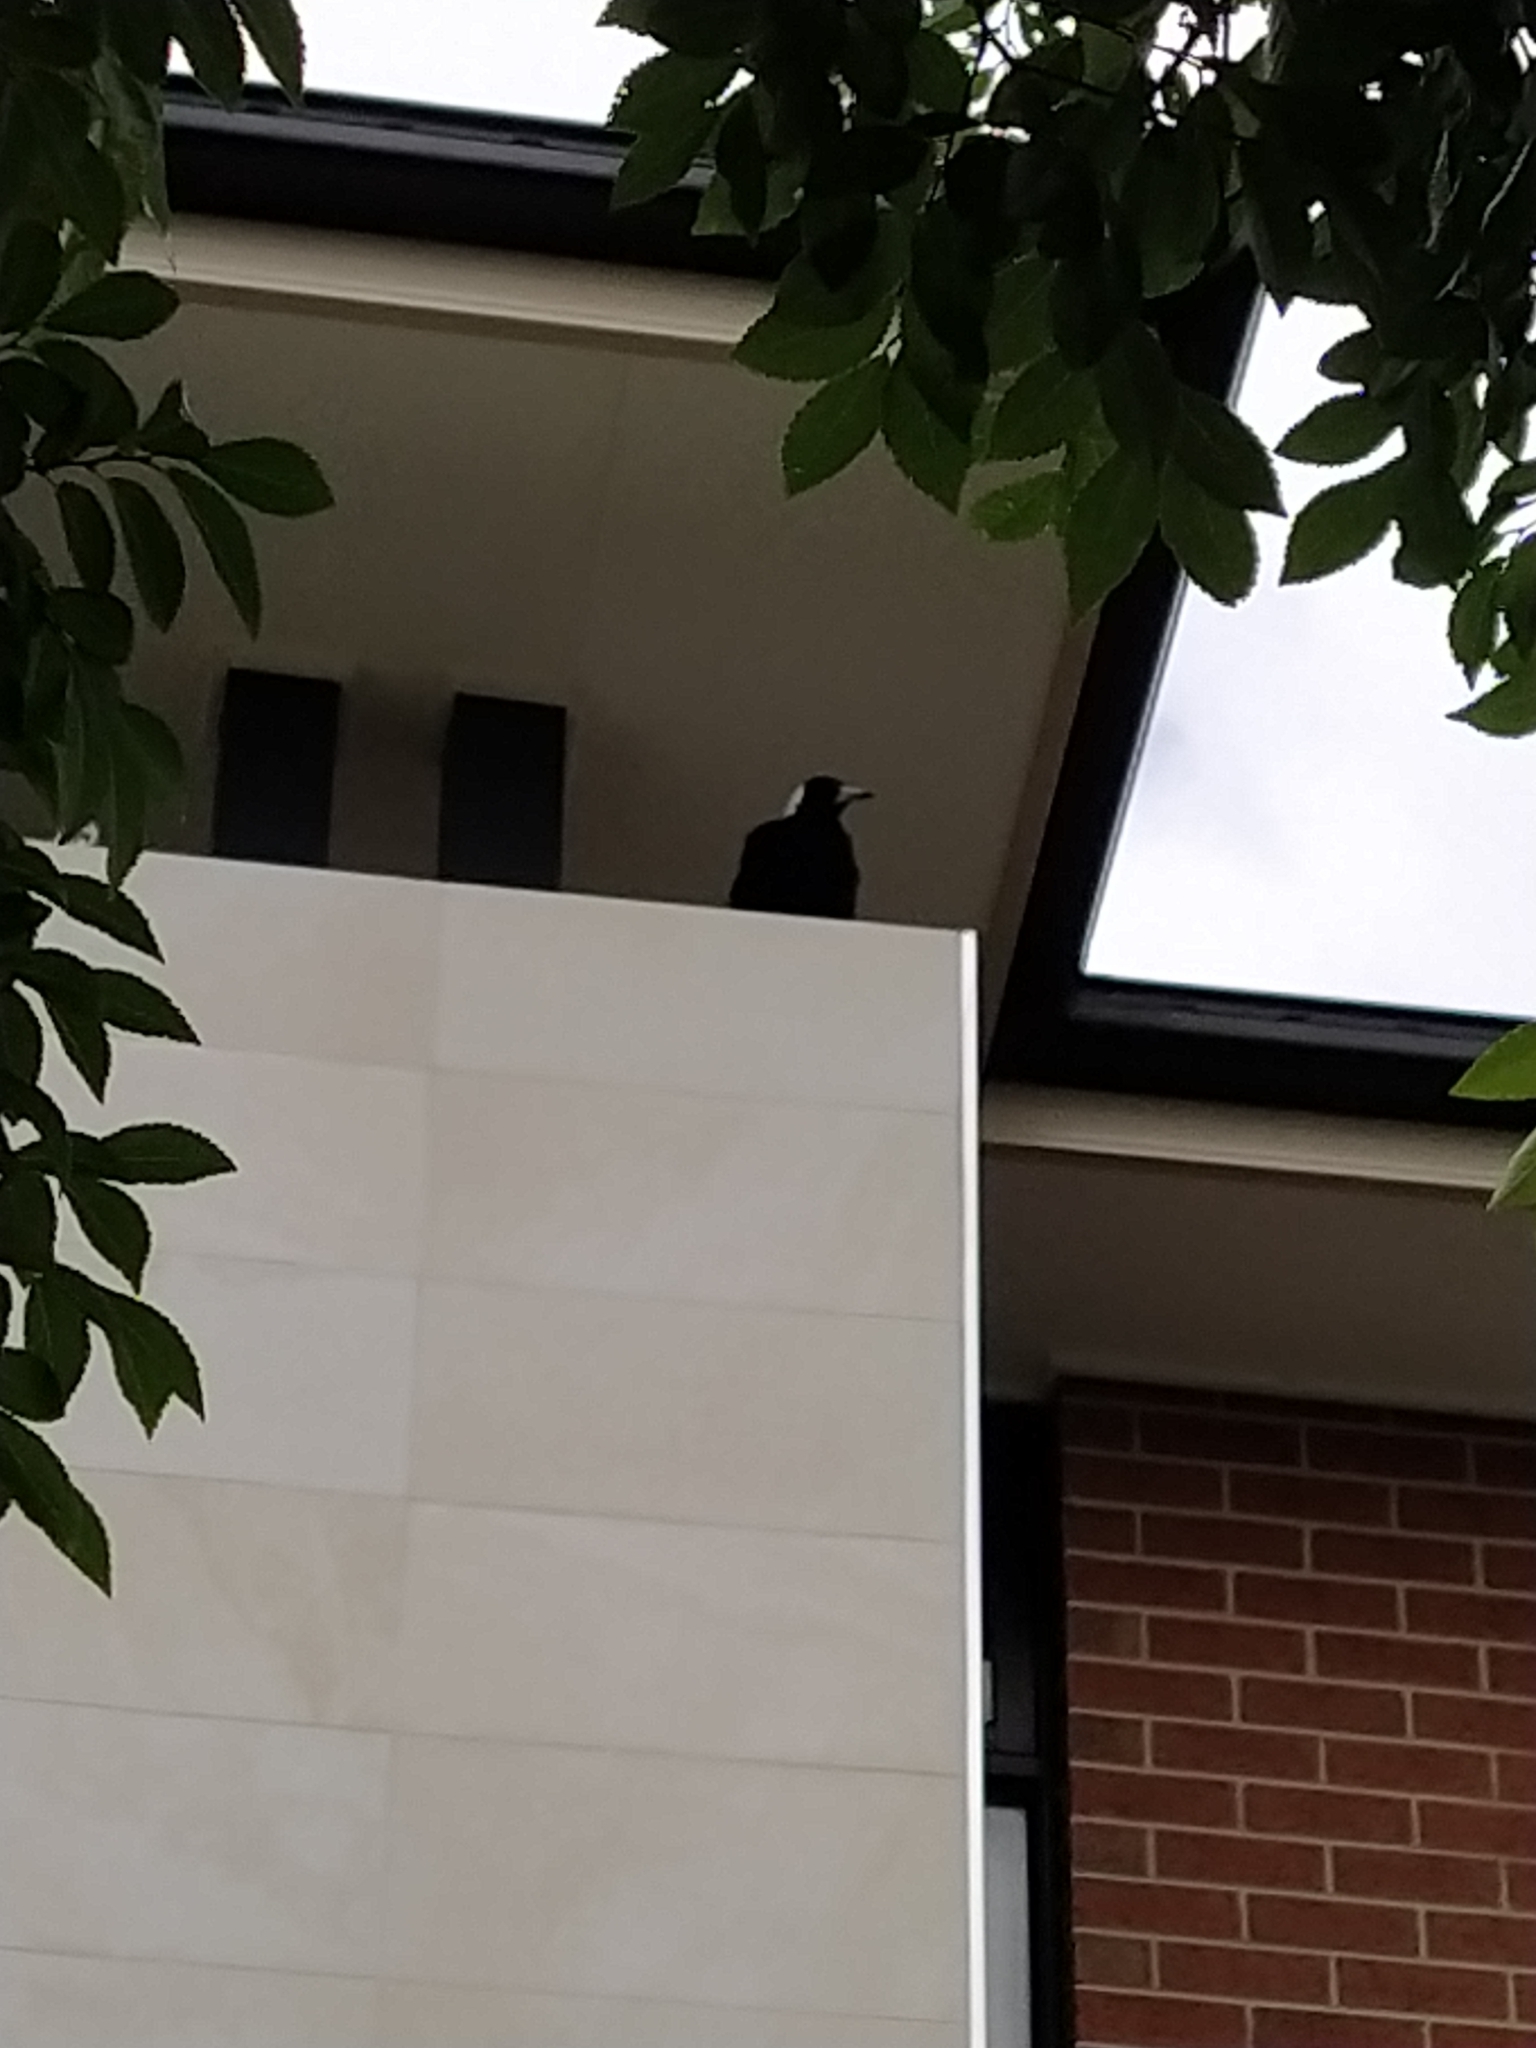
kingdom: Animalia
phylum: Chordata
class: Aves
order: Passeriformes
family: Cracticidae
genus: Gymnorhina
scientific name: Gymnorhina tibicen
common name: Australian magpie
